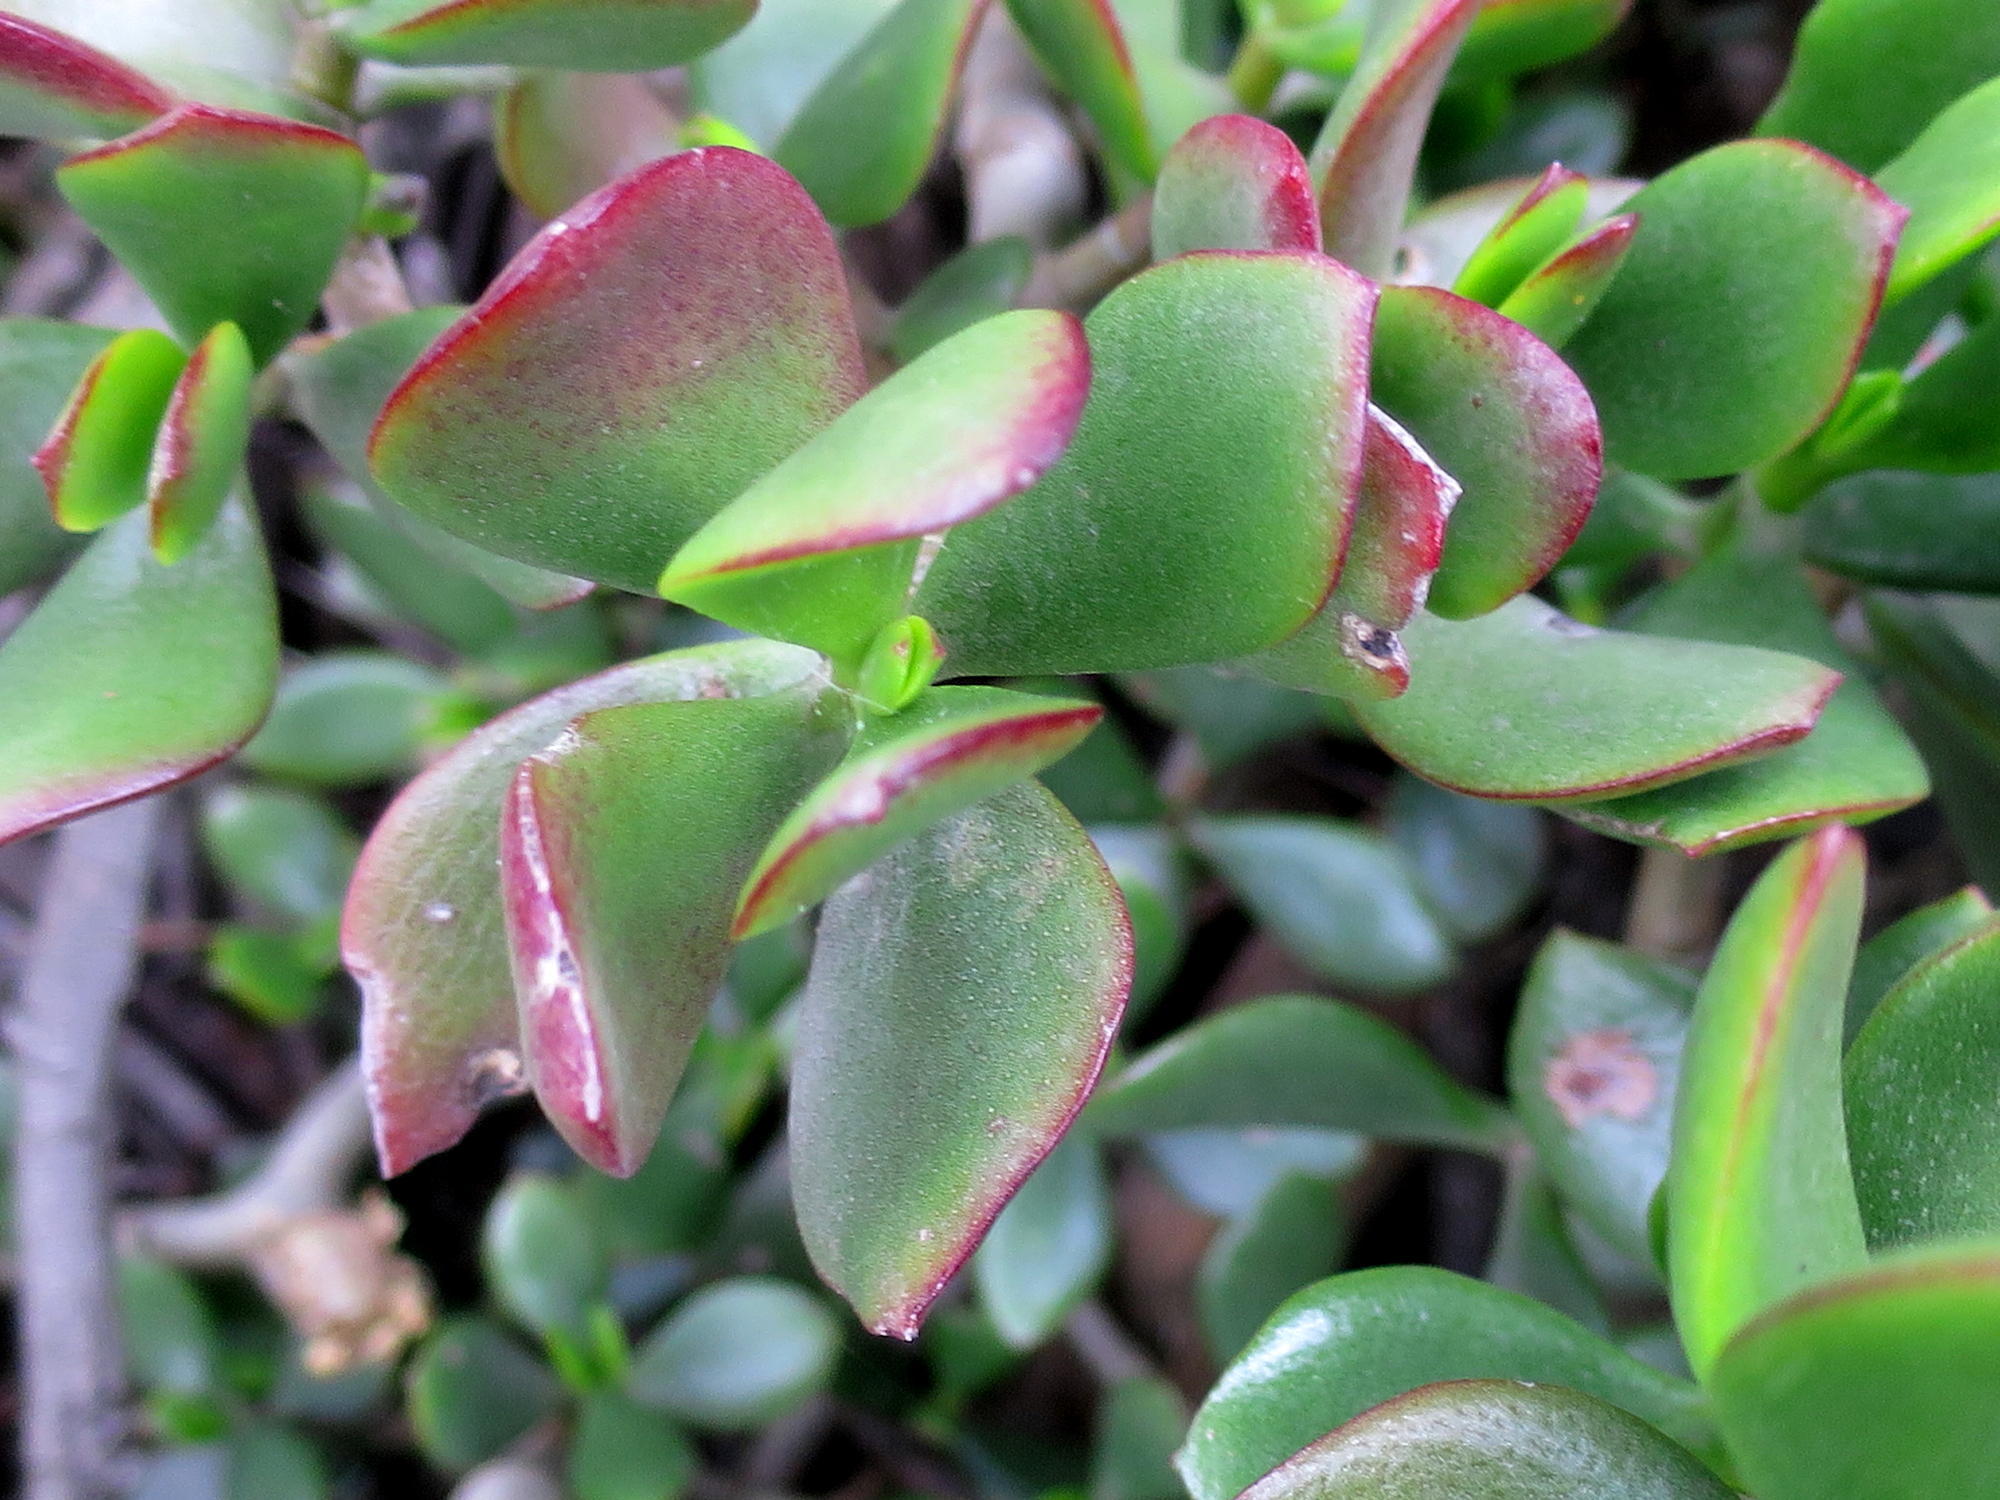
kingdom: Plantae
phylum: Tracheophyta
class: Magnoliopsida
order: Saxifragales
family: Crassulaceae
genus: Crassula
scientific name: Crassula ovata
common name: Jade plant
